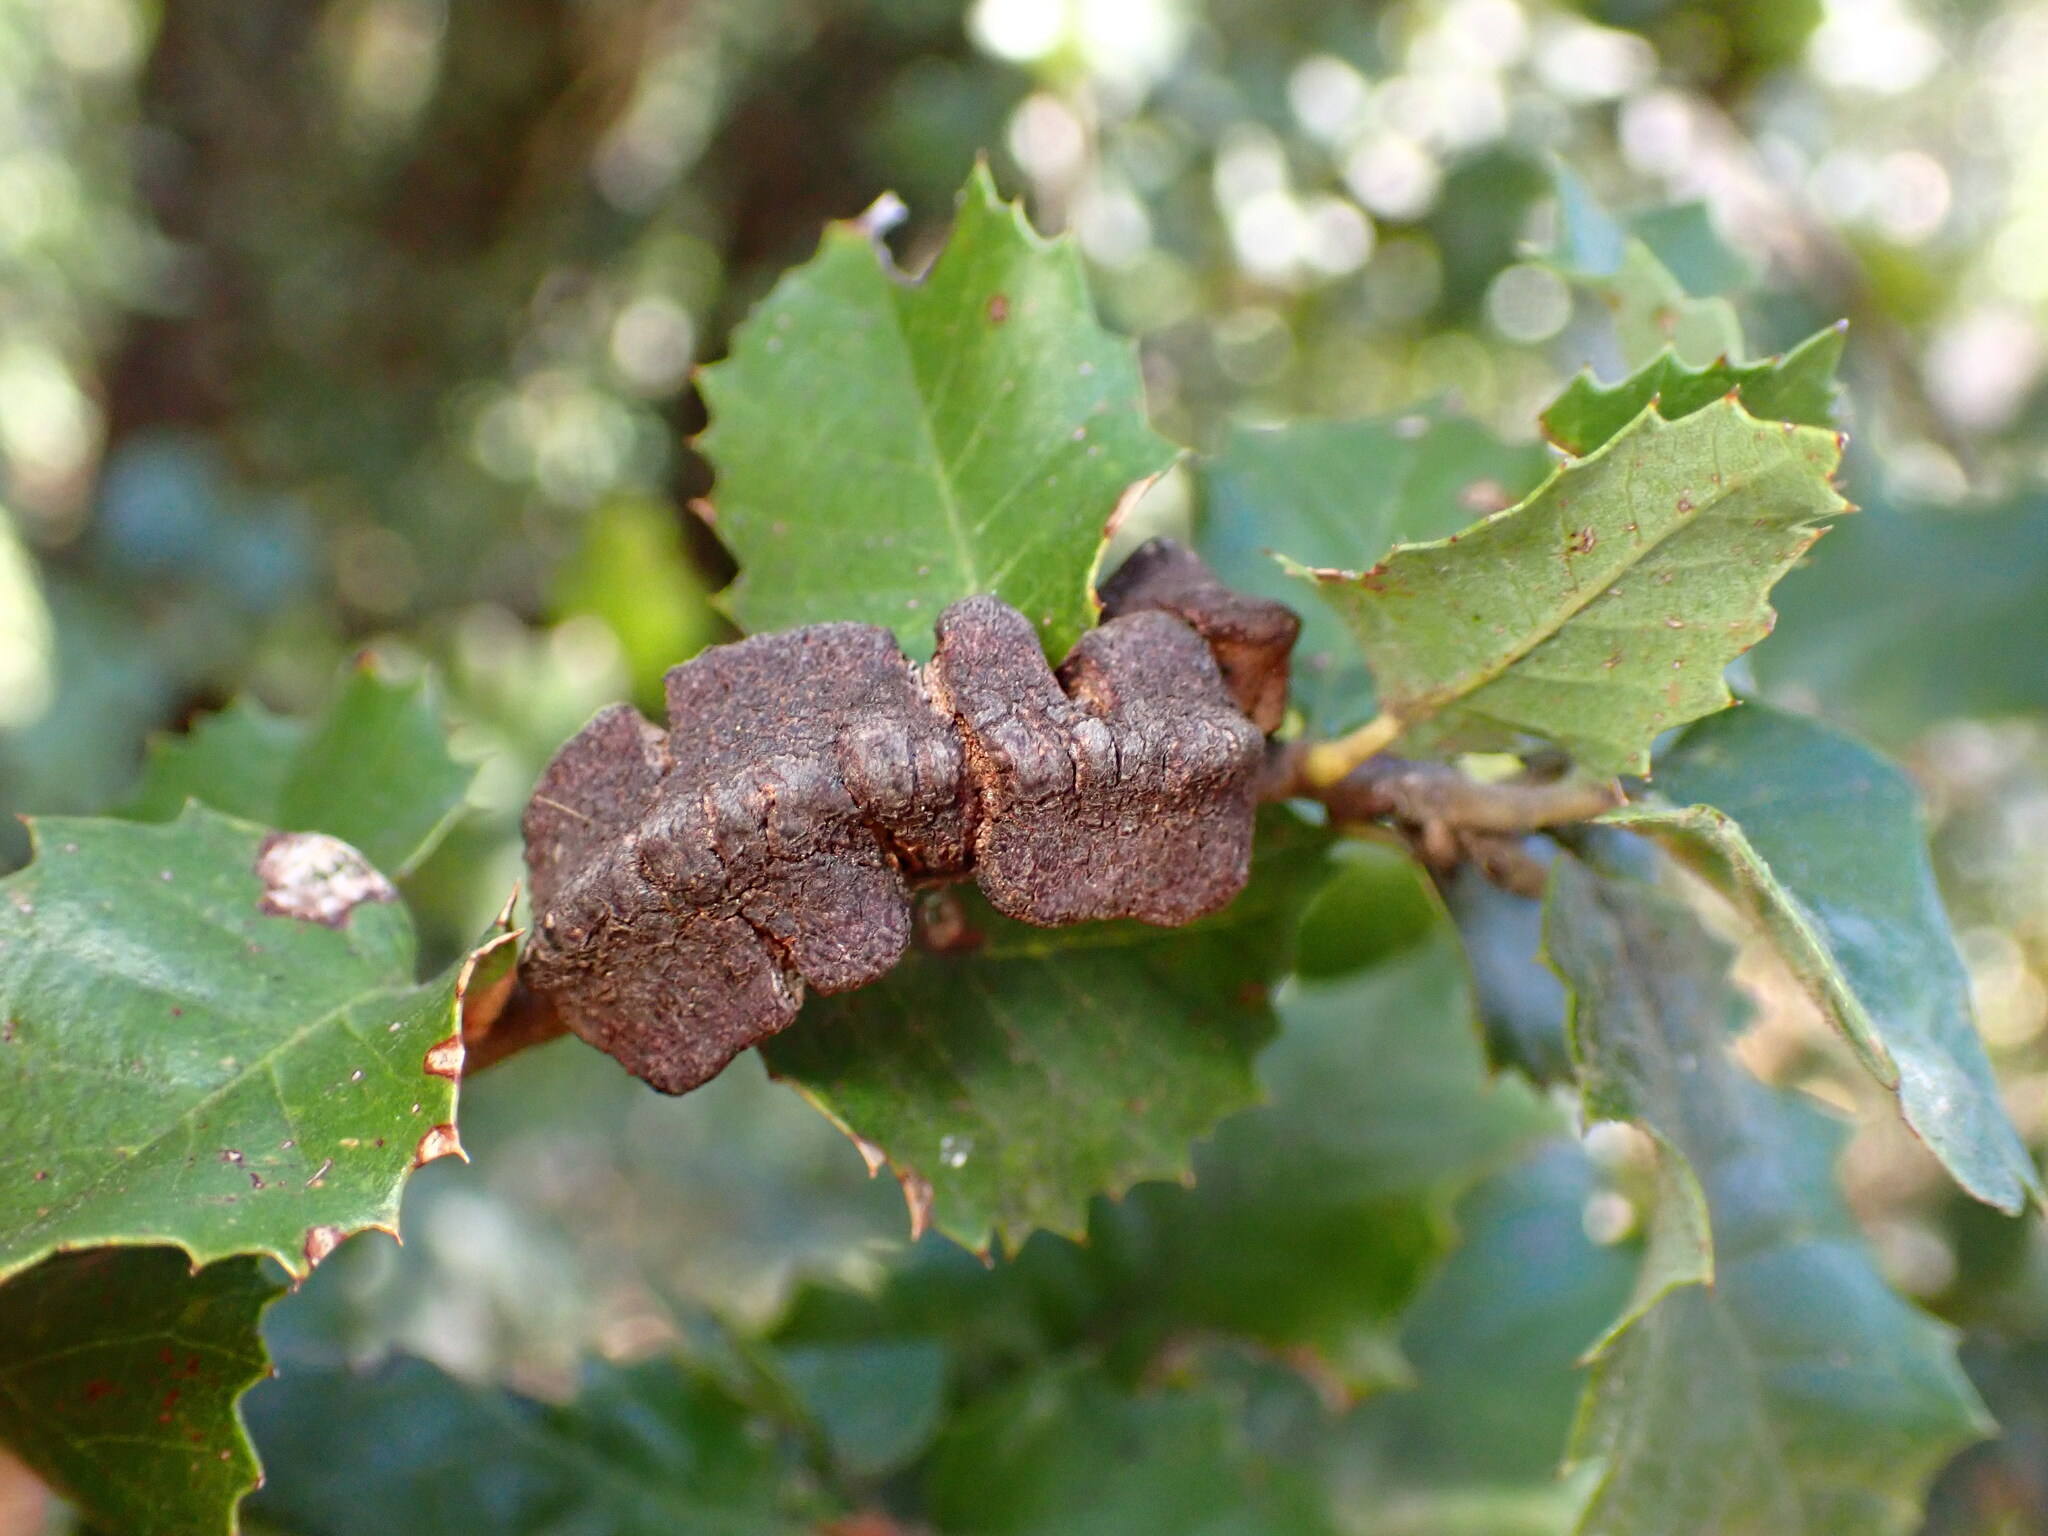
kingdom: Animalia
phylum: Arthropoda
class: Insecta
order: Hymenoptera
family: Cynipidae
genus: Disholandricus
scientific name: Disholandricus
